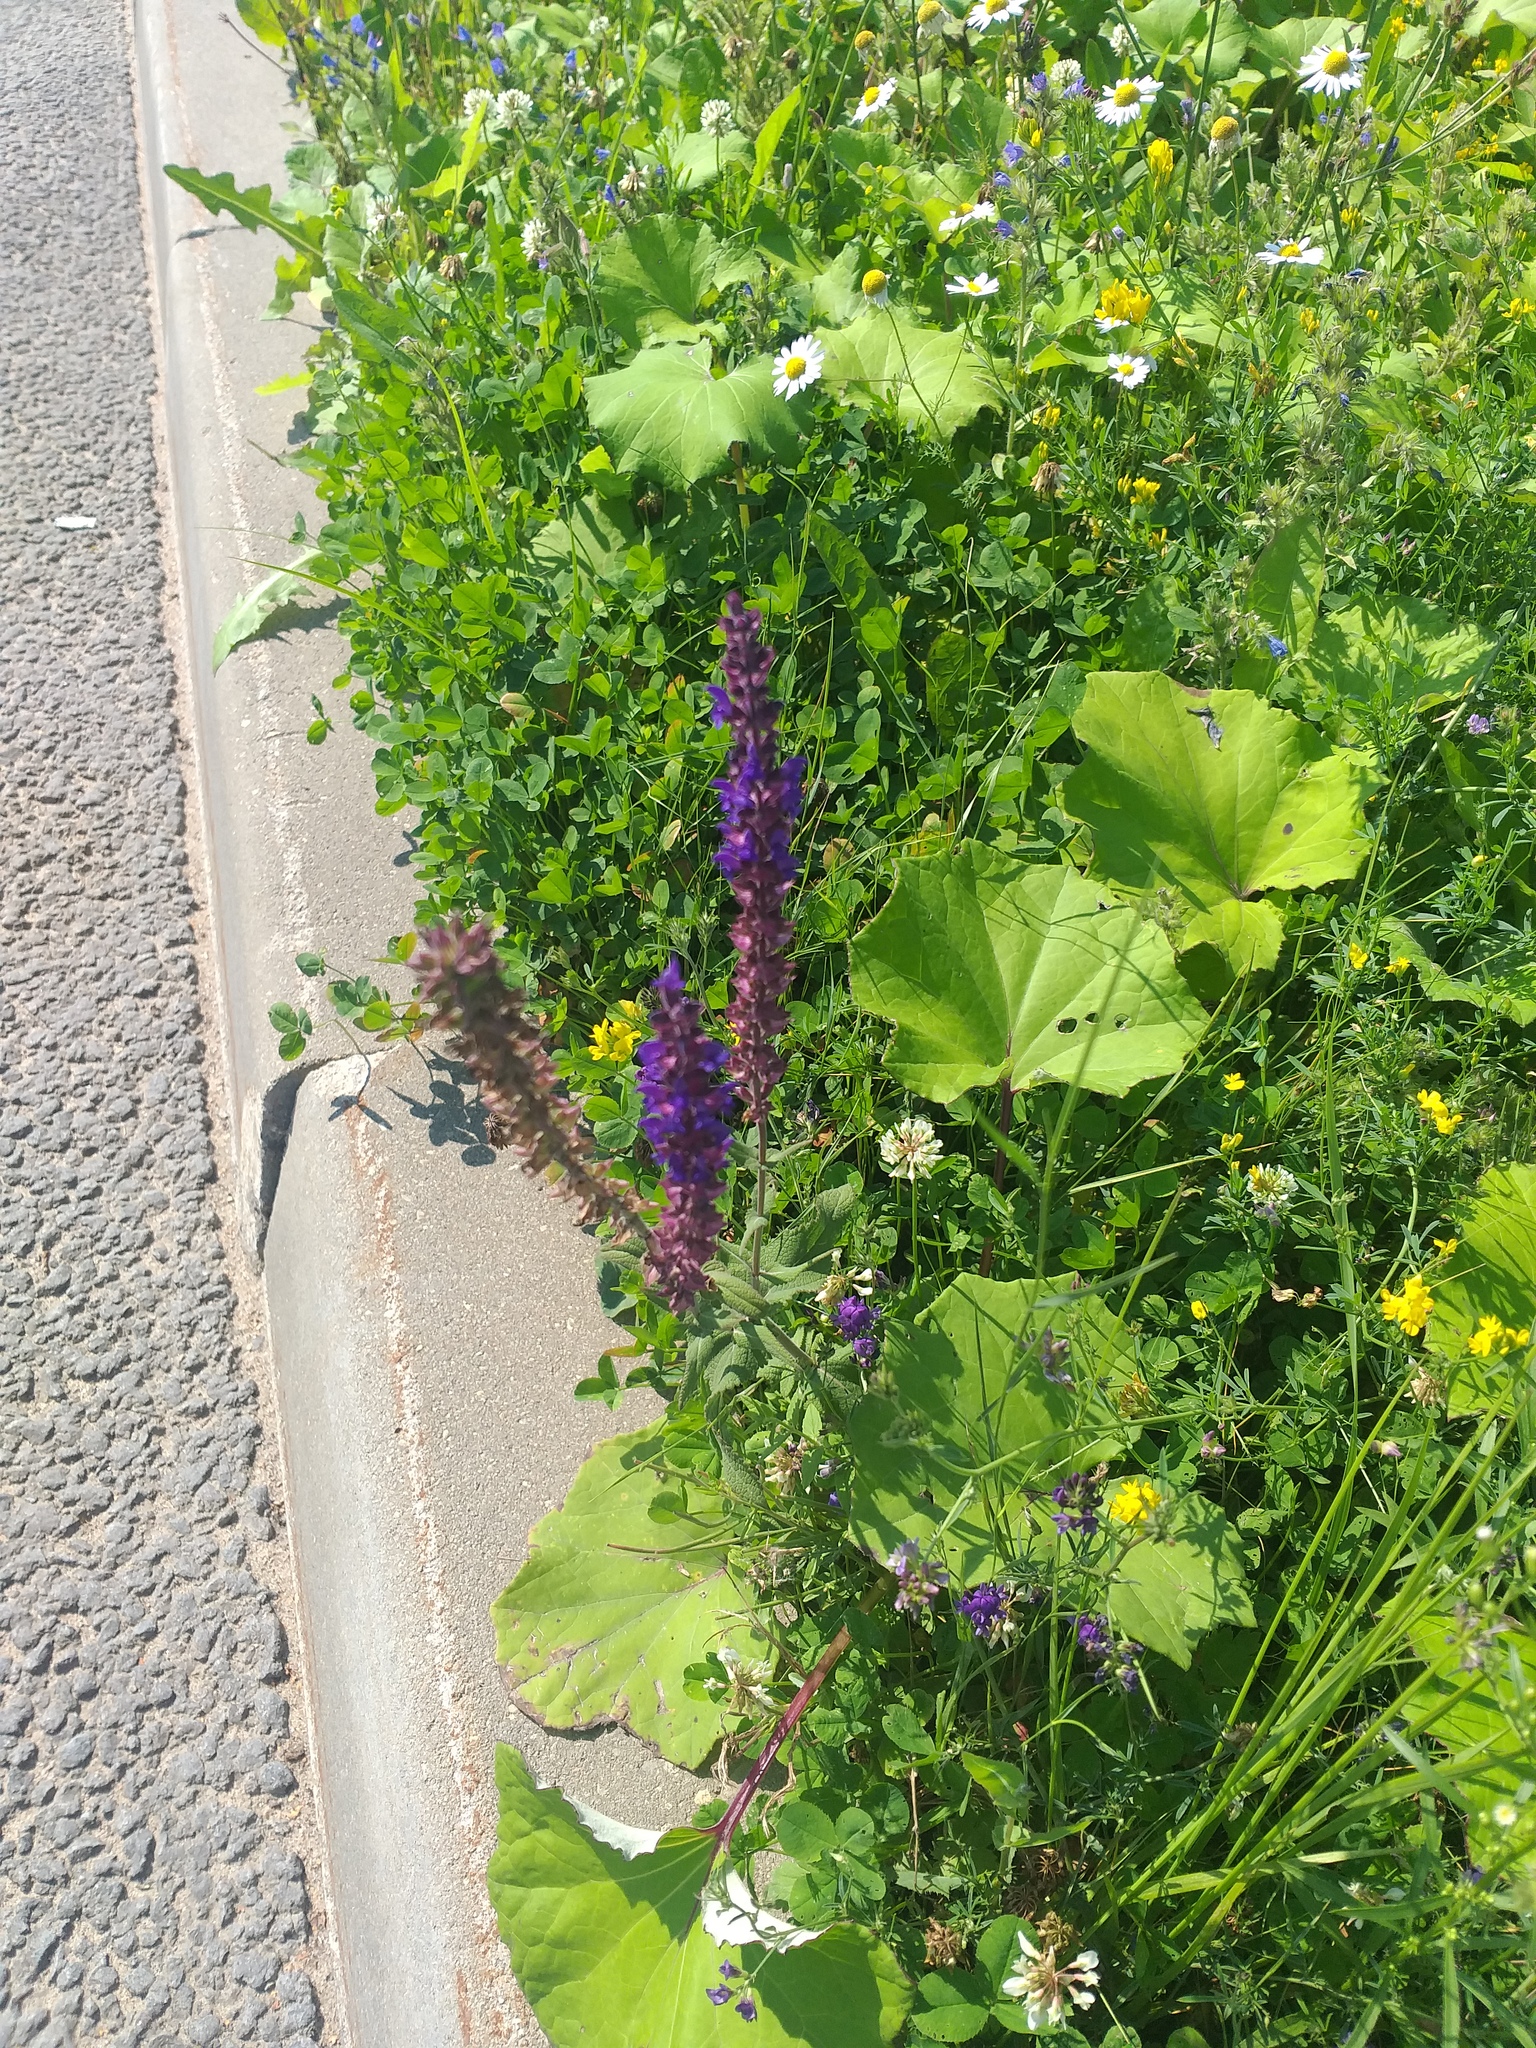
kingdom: Plantae
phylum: Tracheophyta
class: Magnoliopsida
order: Lamiales
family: Lamiaceae
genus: Salvia
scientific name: Salvia nemorosa
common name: Balkan clary
